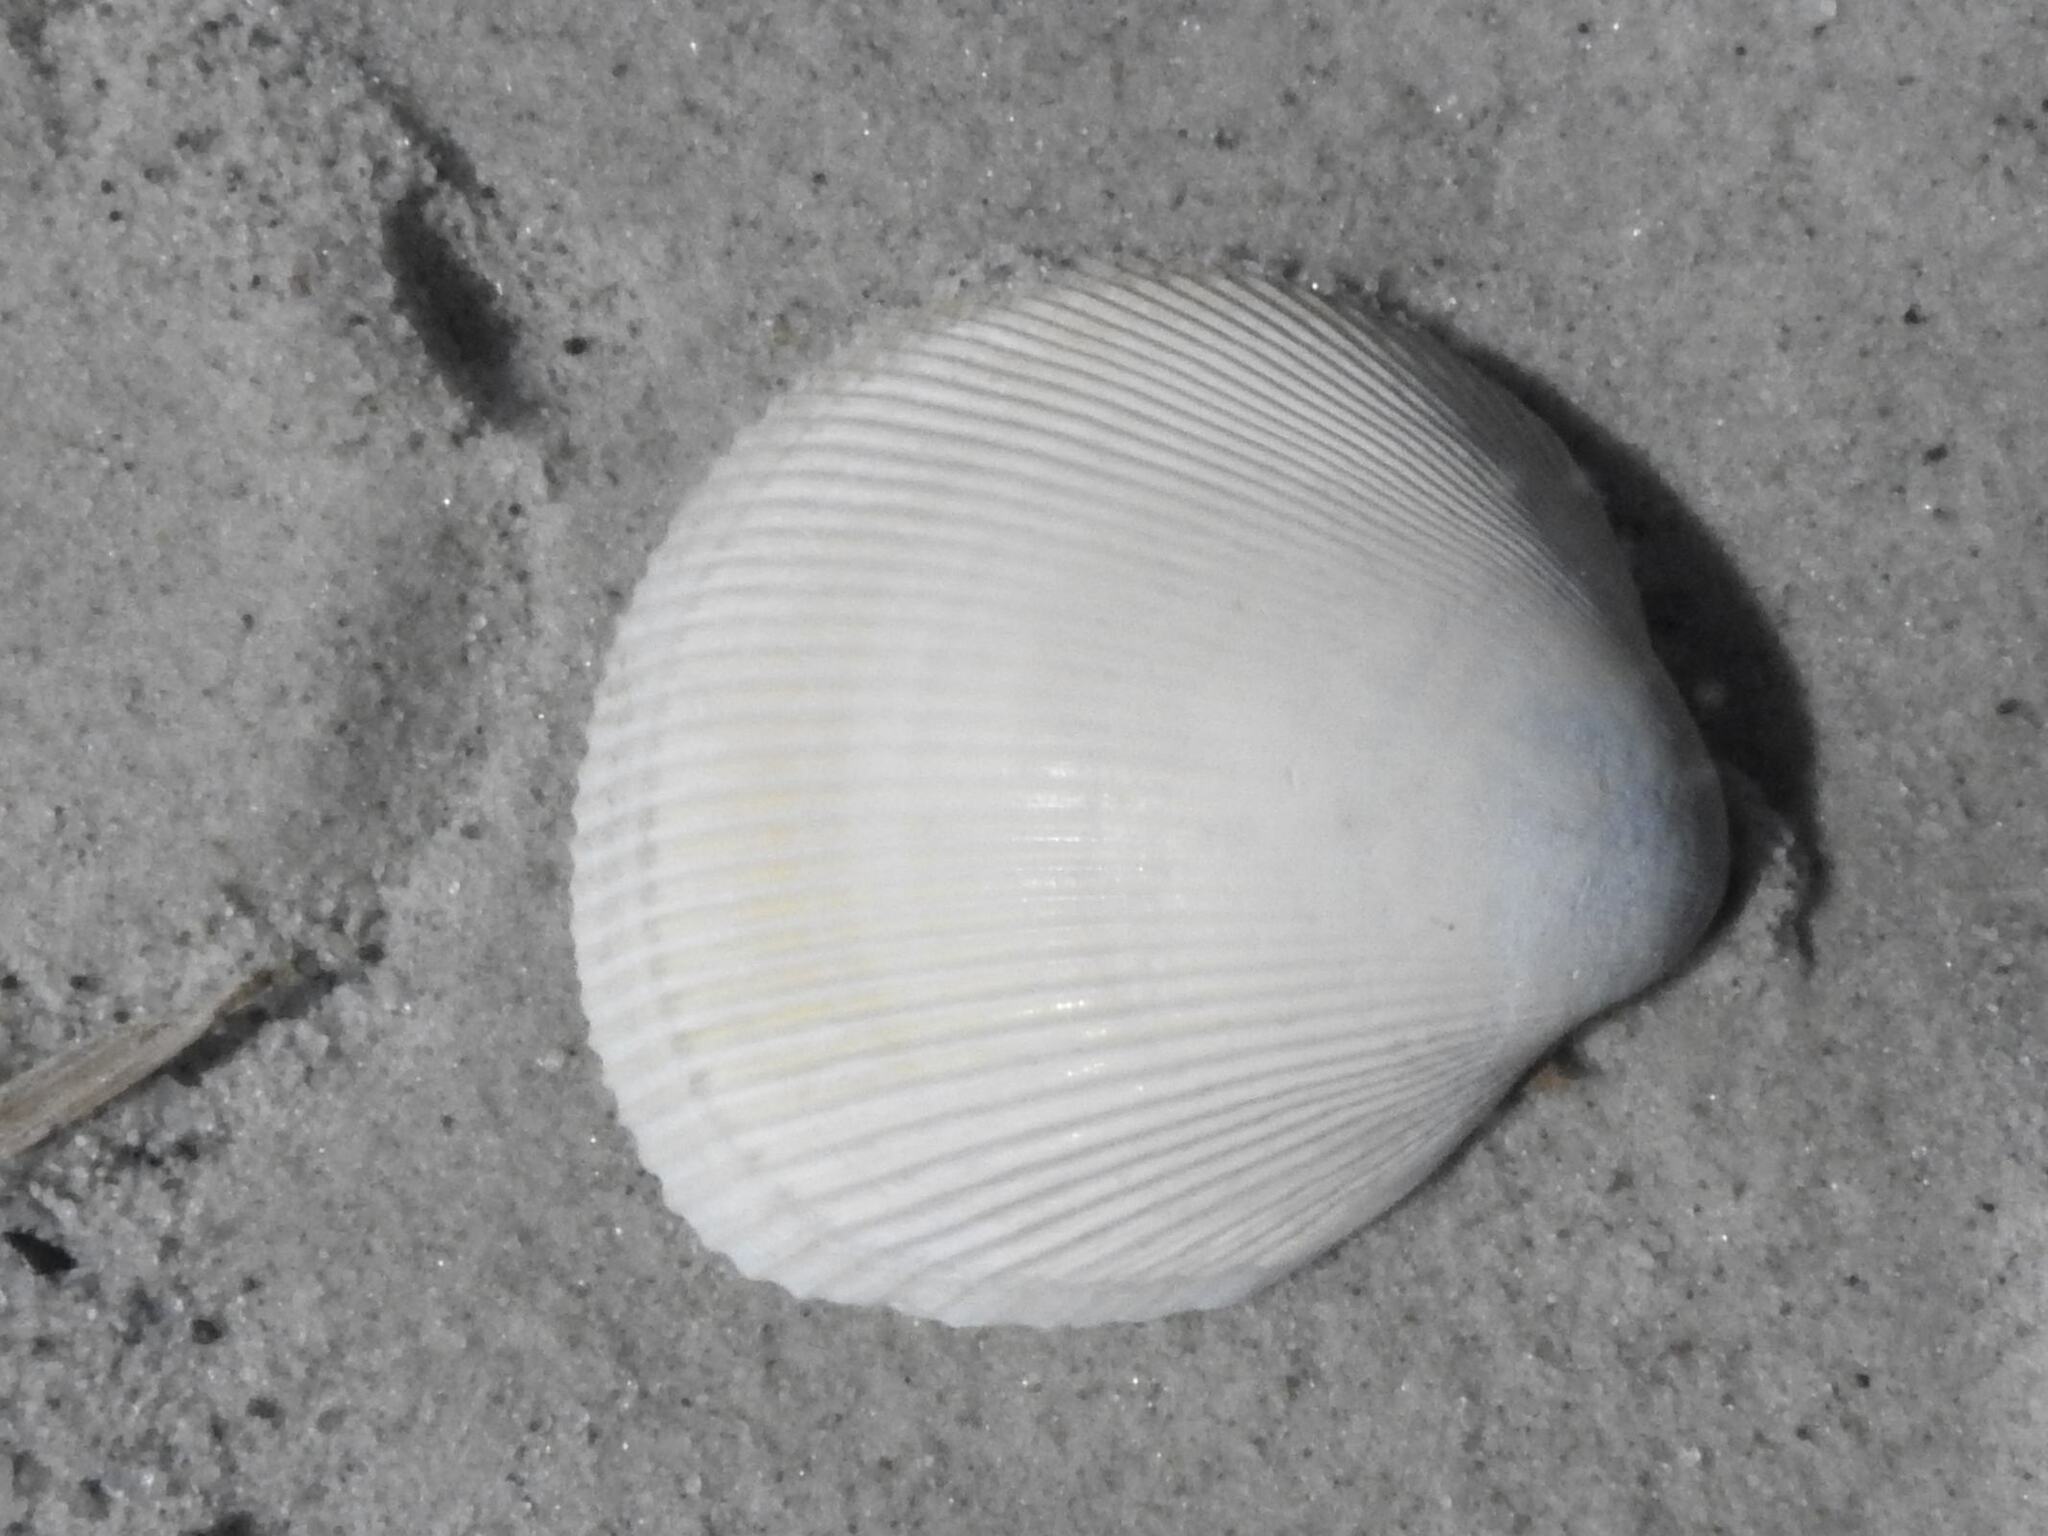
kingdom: Animalia
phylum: Mollusca
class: Bivalvia
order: Cardiida
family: Cardiidae
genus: Fulvia
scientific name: Fulvia tenuicostata
